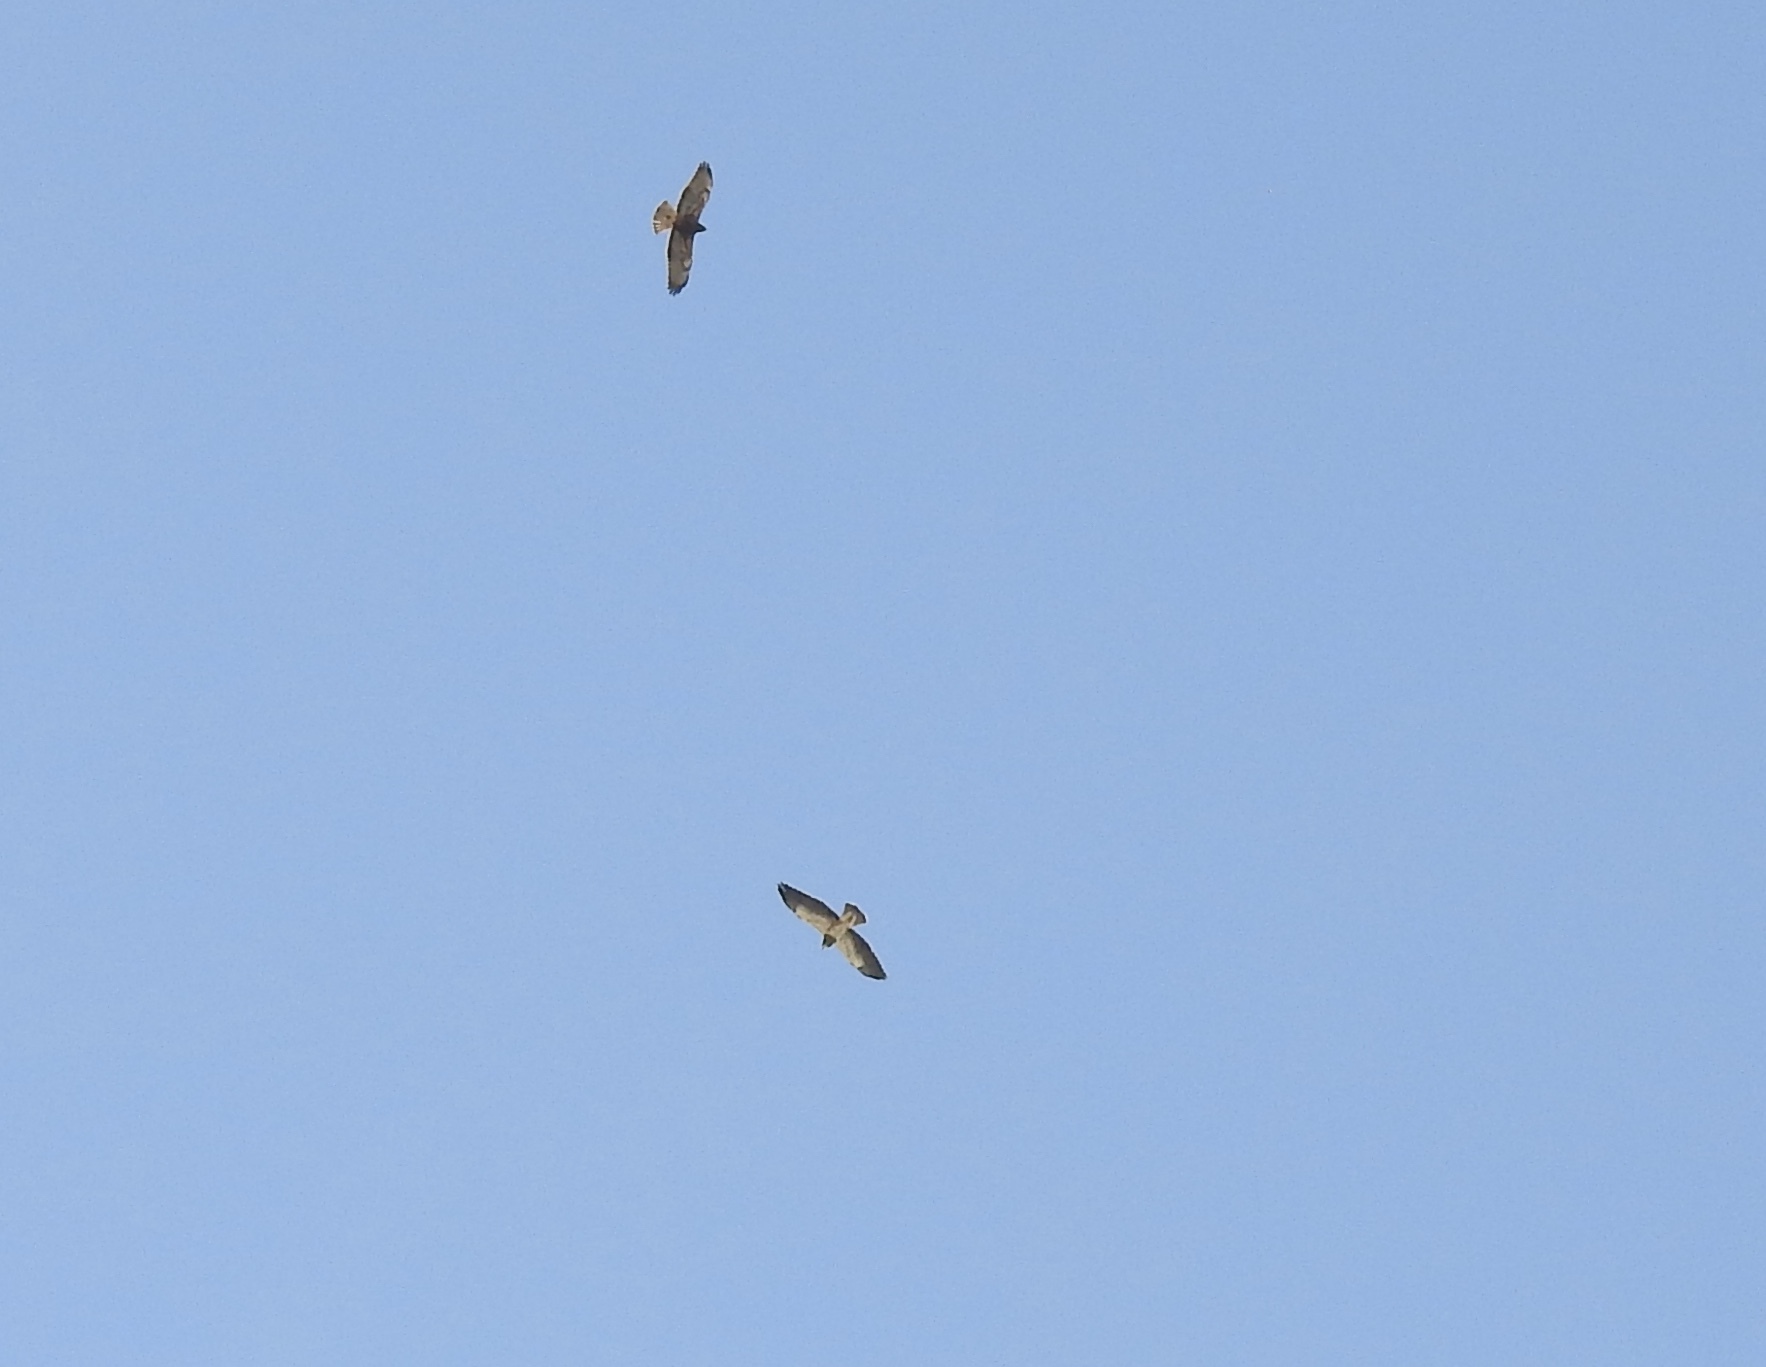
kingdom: Animalia
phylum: Chordata
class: Aves
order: Accipitriformes
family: Accipitridae
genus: Buteo
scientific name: Buteo swainsoni
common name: Swainson's hawk
